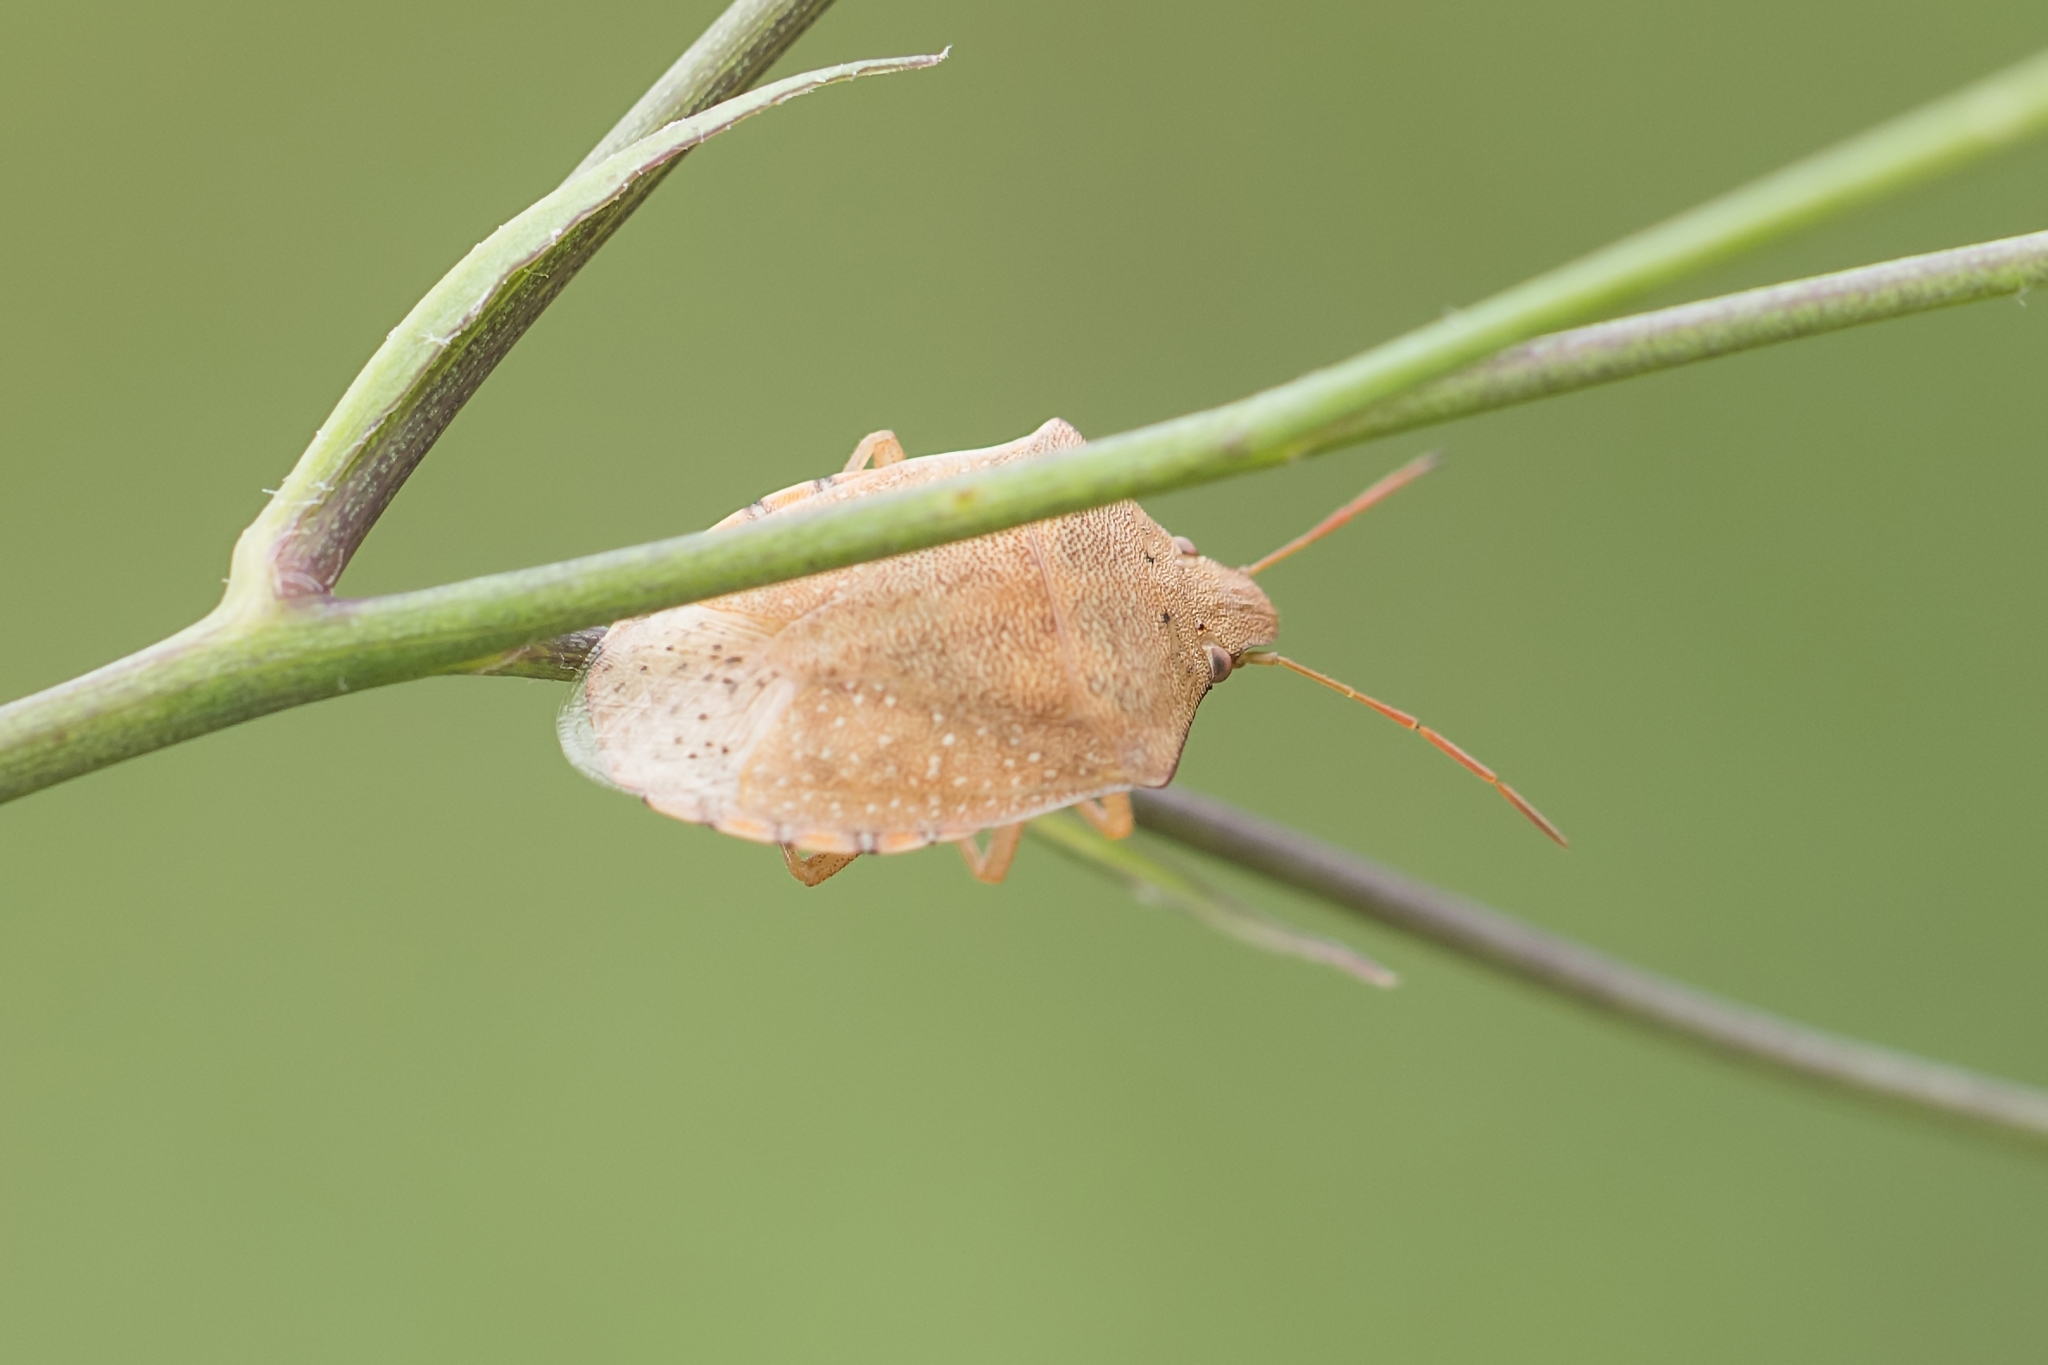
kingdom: Animalia
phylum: Arthropoda
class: Insecta
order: Hemiptera
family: Pentatomidae
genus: Thyanta
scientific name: Thyanta custator
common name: Stink bug
